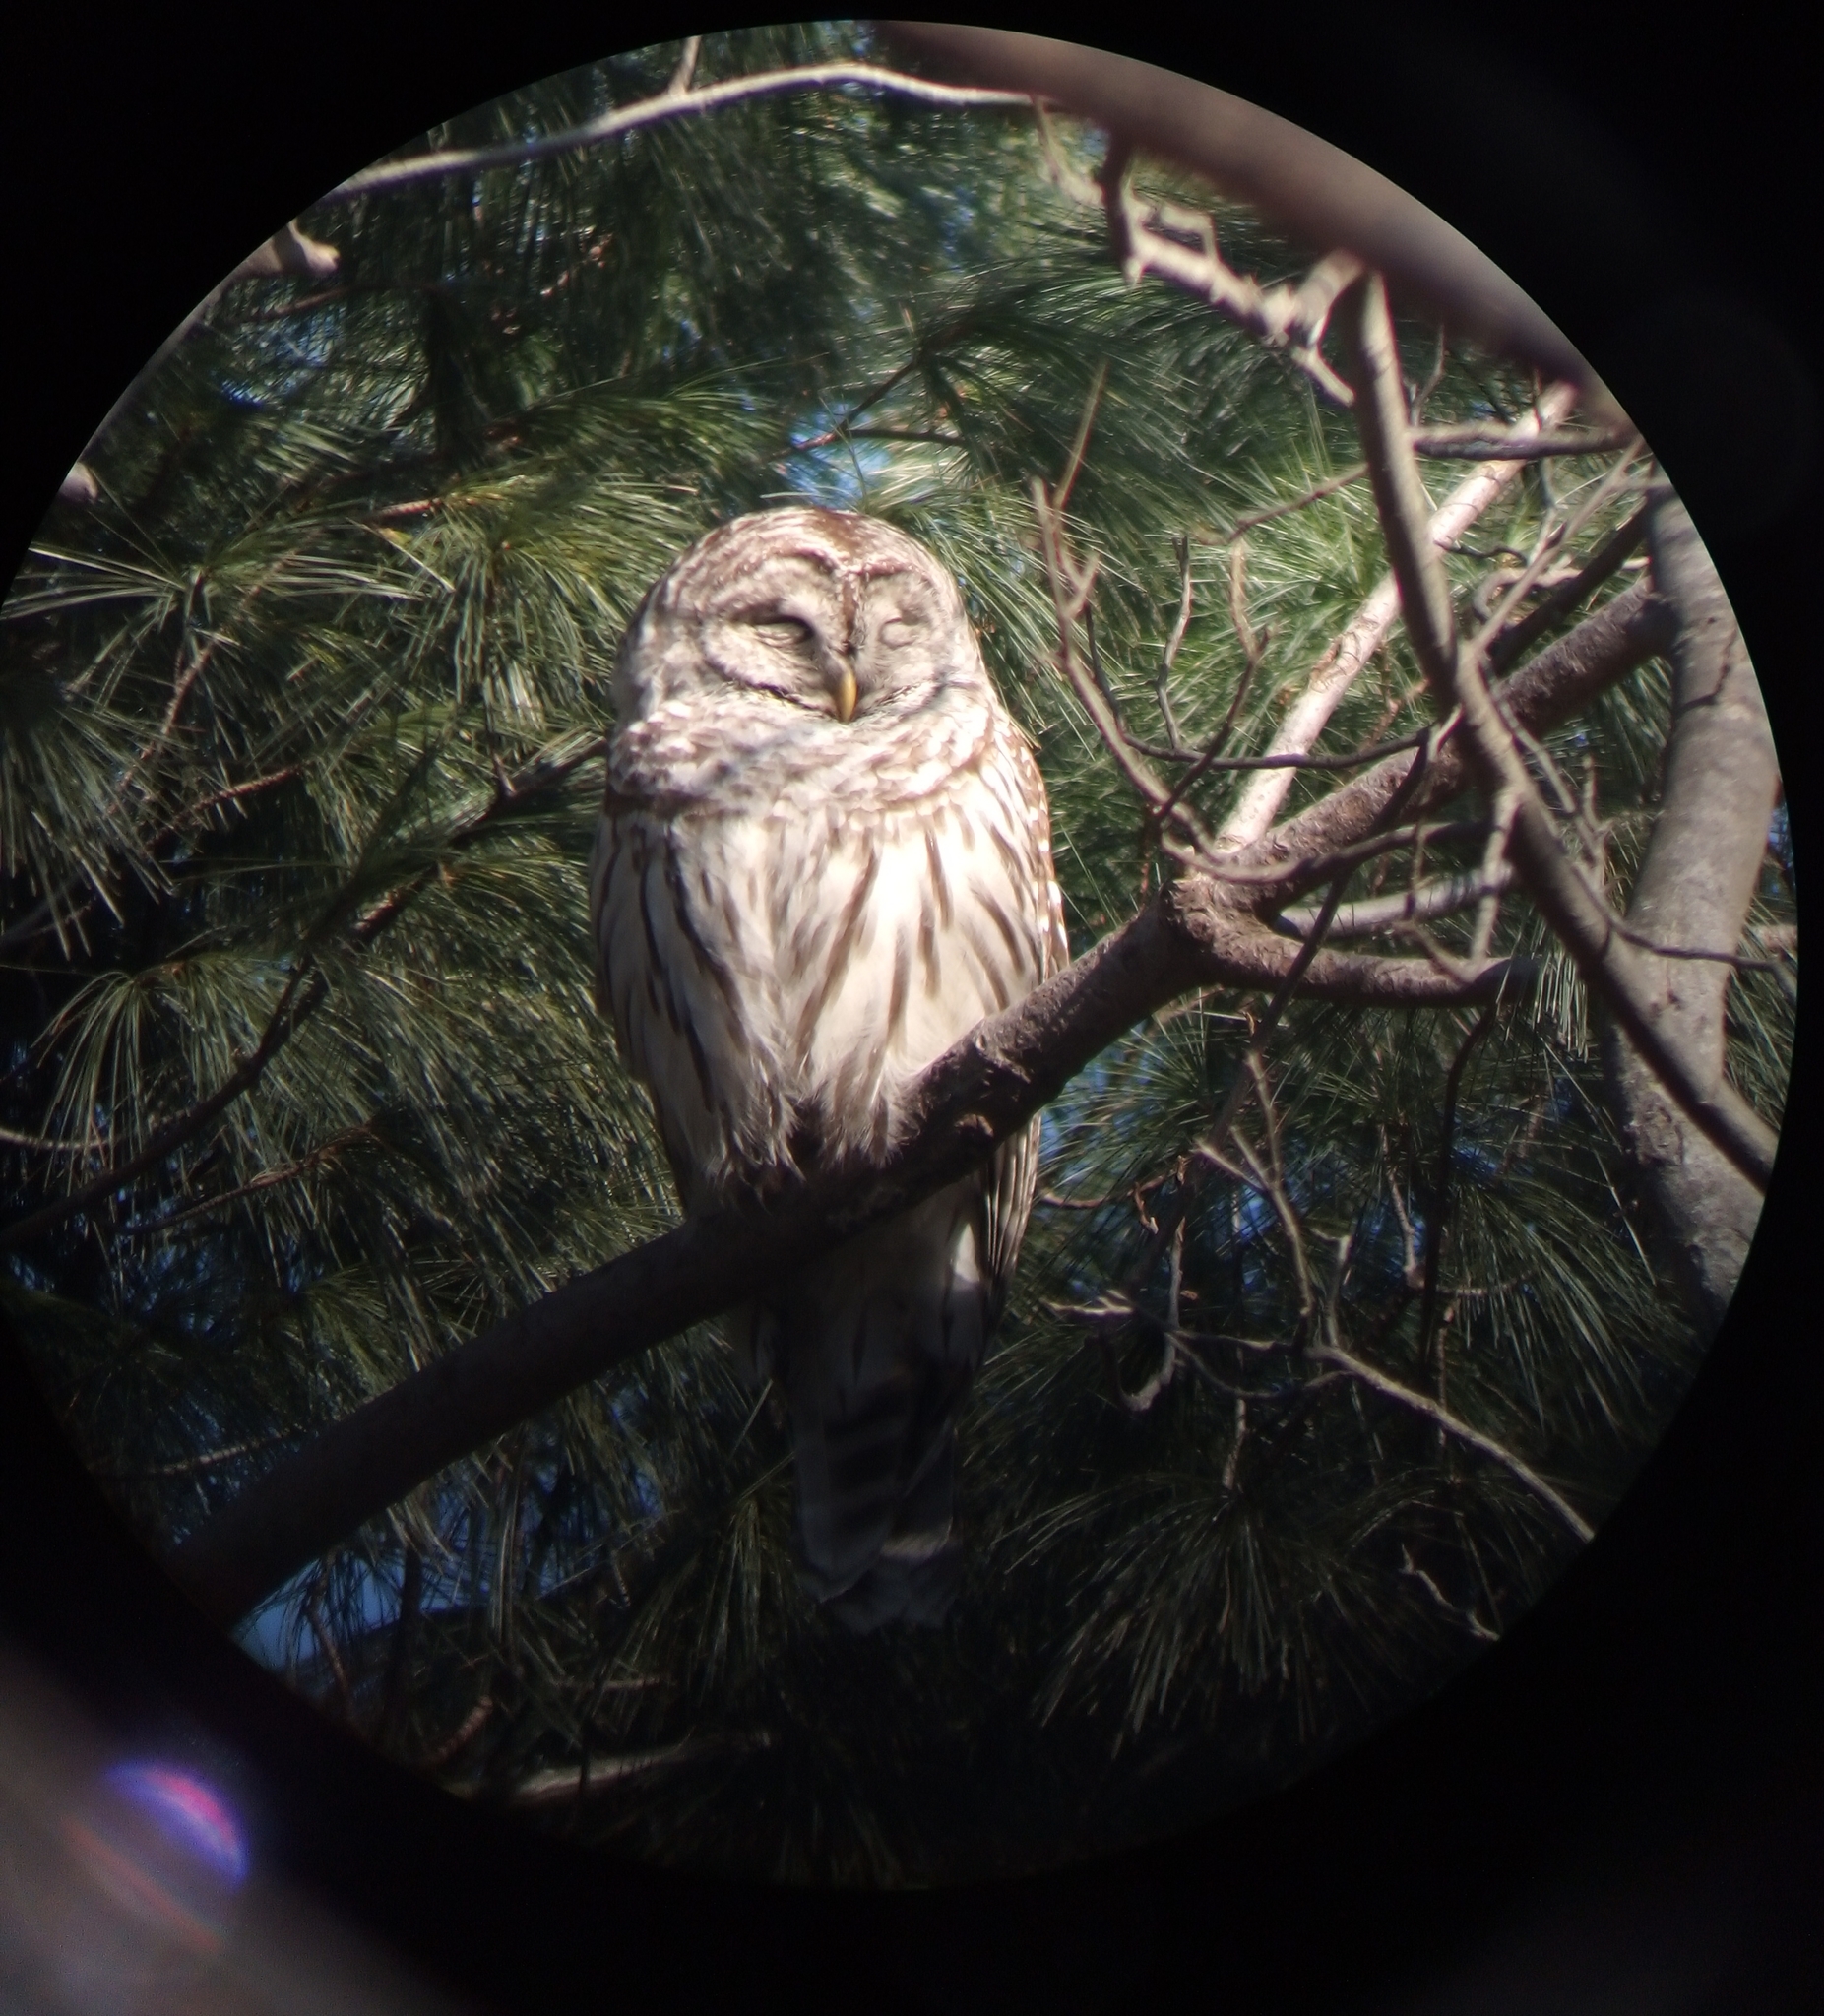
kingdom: Animalia
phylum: Chordata
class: Aves
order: Strigiformes
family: Strigidae
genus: Strix
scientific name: Strix varia
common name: Barred owl
